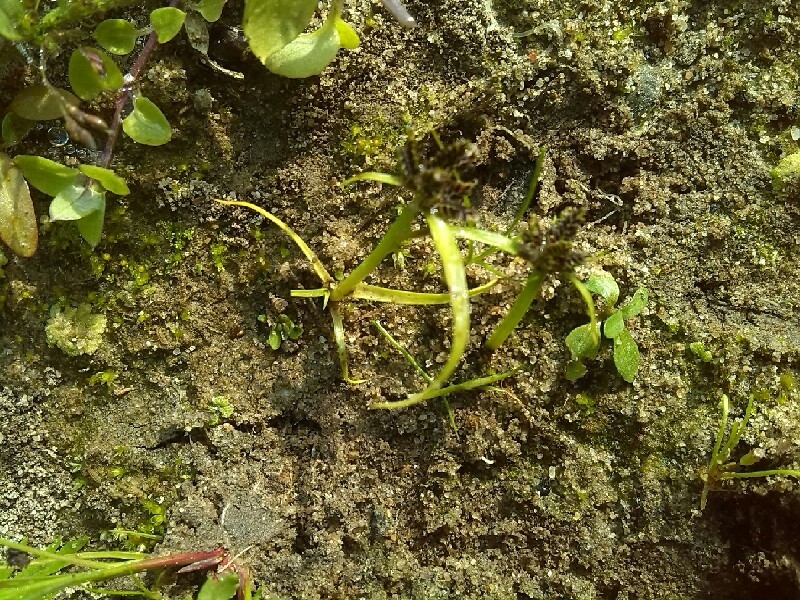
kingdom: Plantae
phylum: Tracheophyta
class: Liliopsida
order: Poales
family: Cyperaceae
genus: Cyperus
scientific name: Cyperus fuscus
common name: Brown galingale
